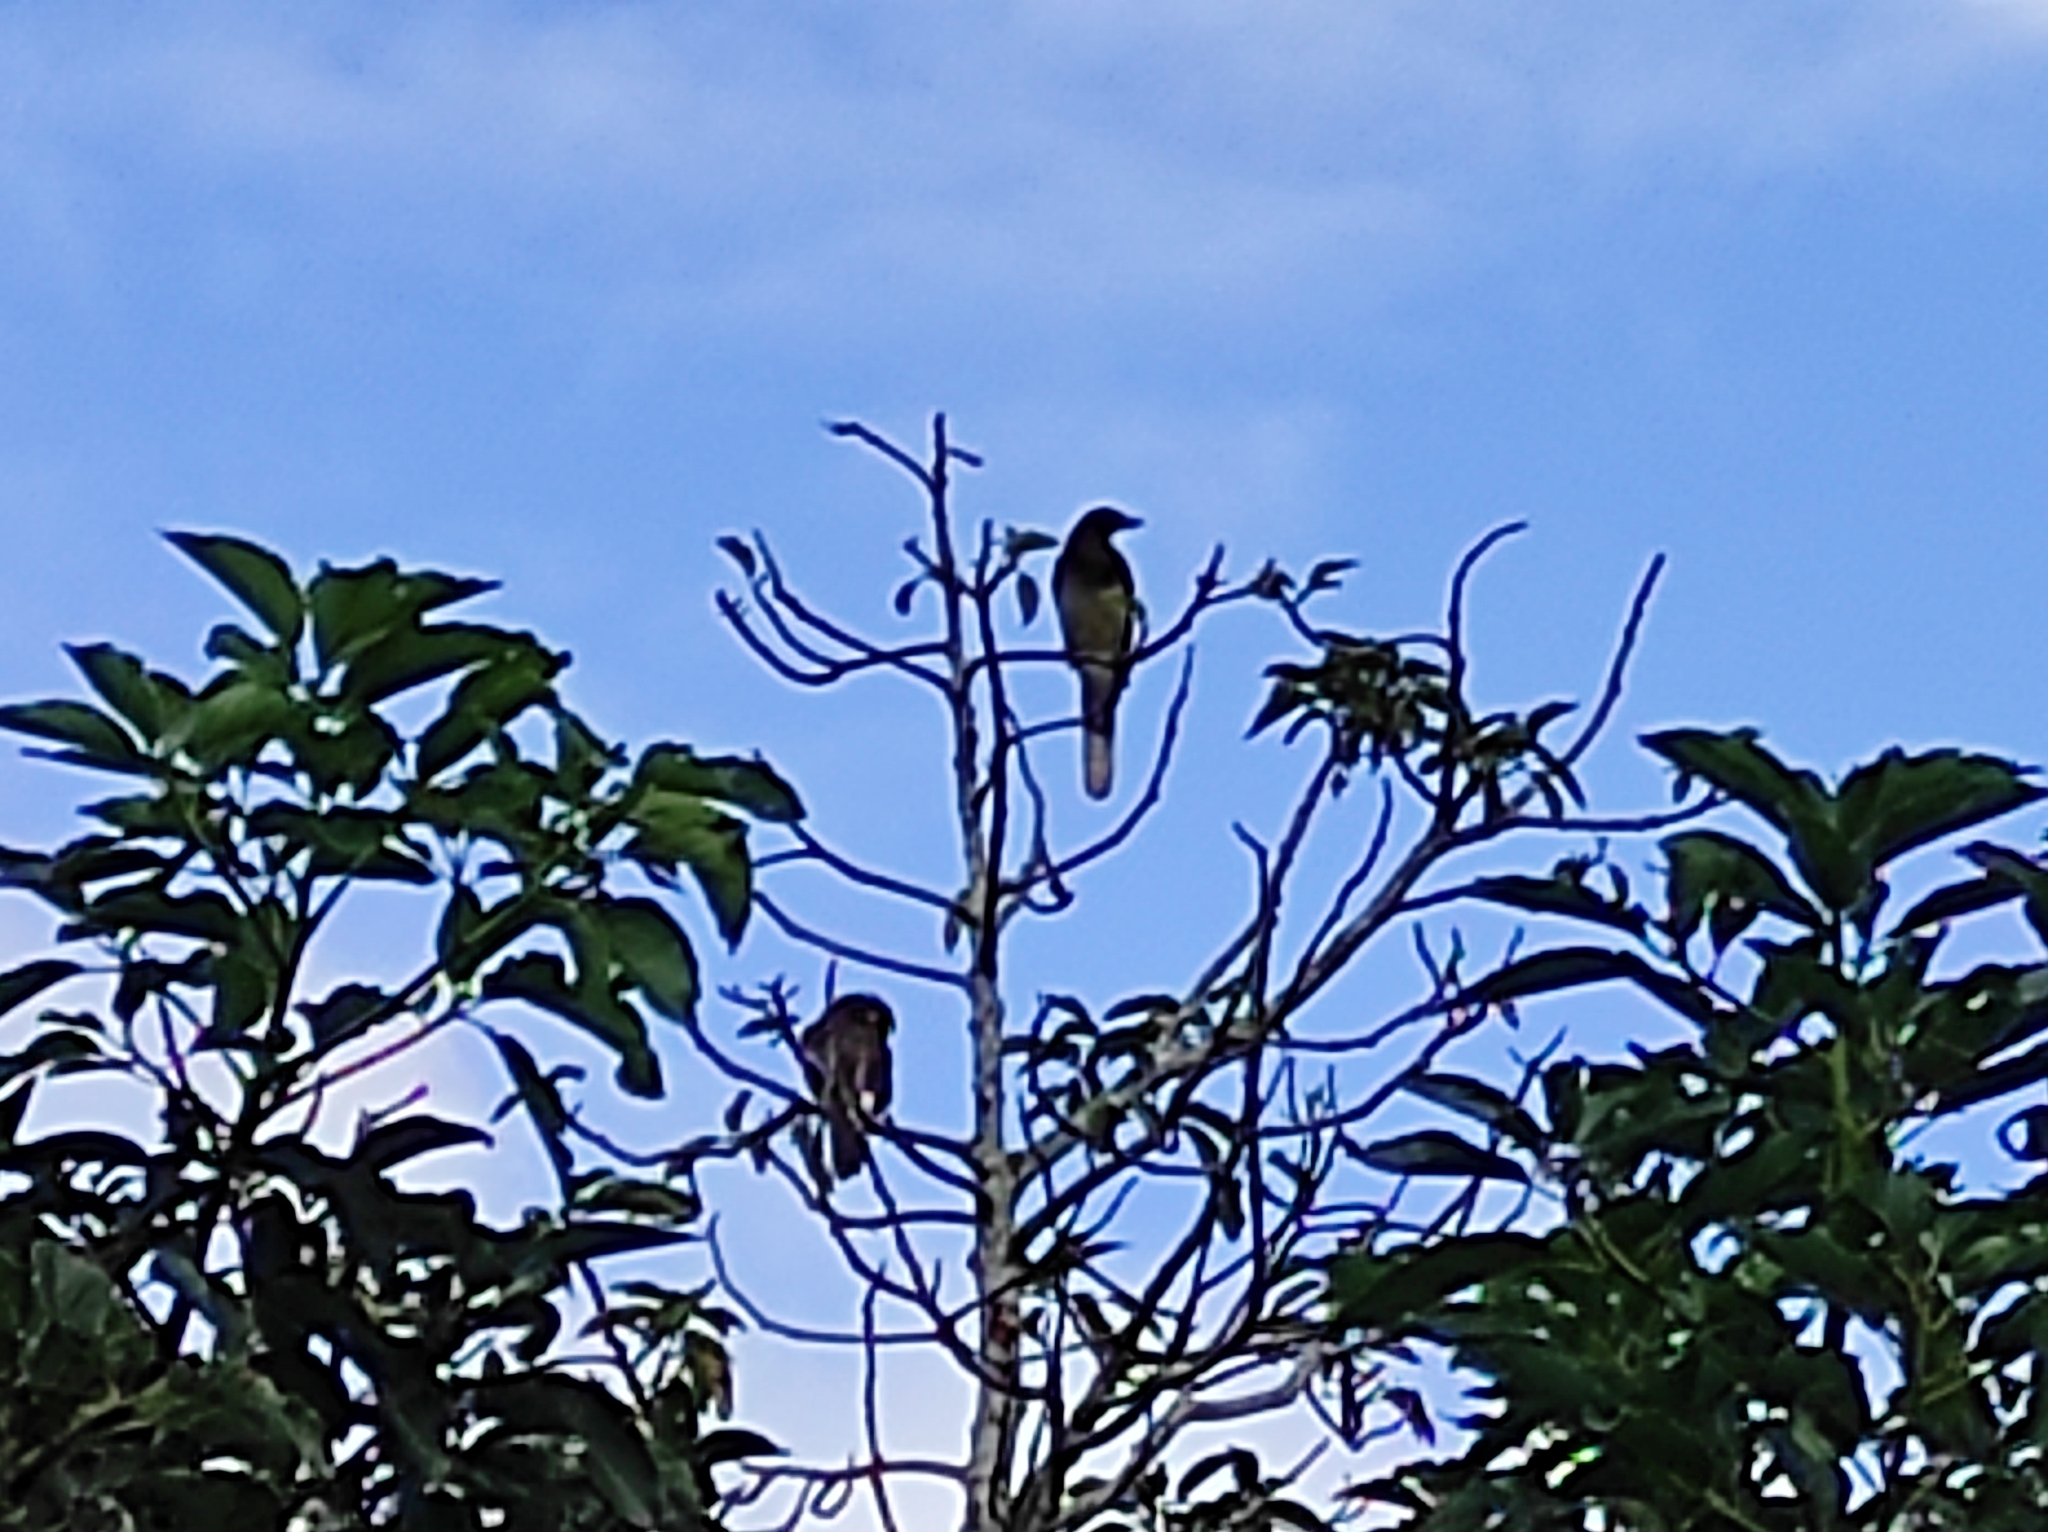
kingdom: Animalia
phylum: Chordata
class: Aves
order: Passeriformes
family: Corvidae
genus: Psilorhinus
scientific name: Psilorhinus morio
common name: Brown jay
